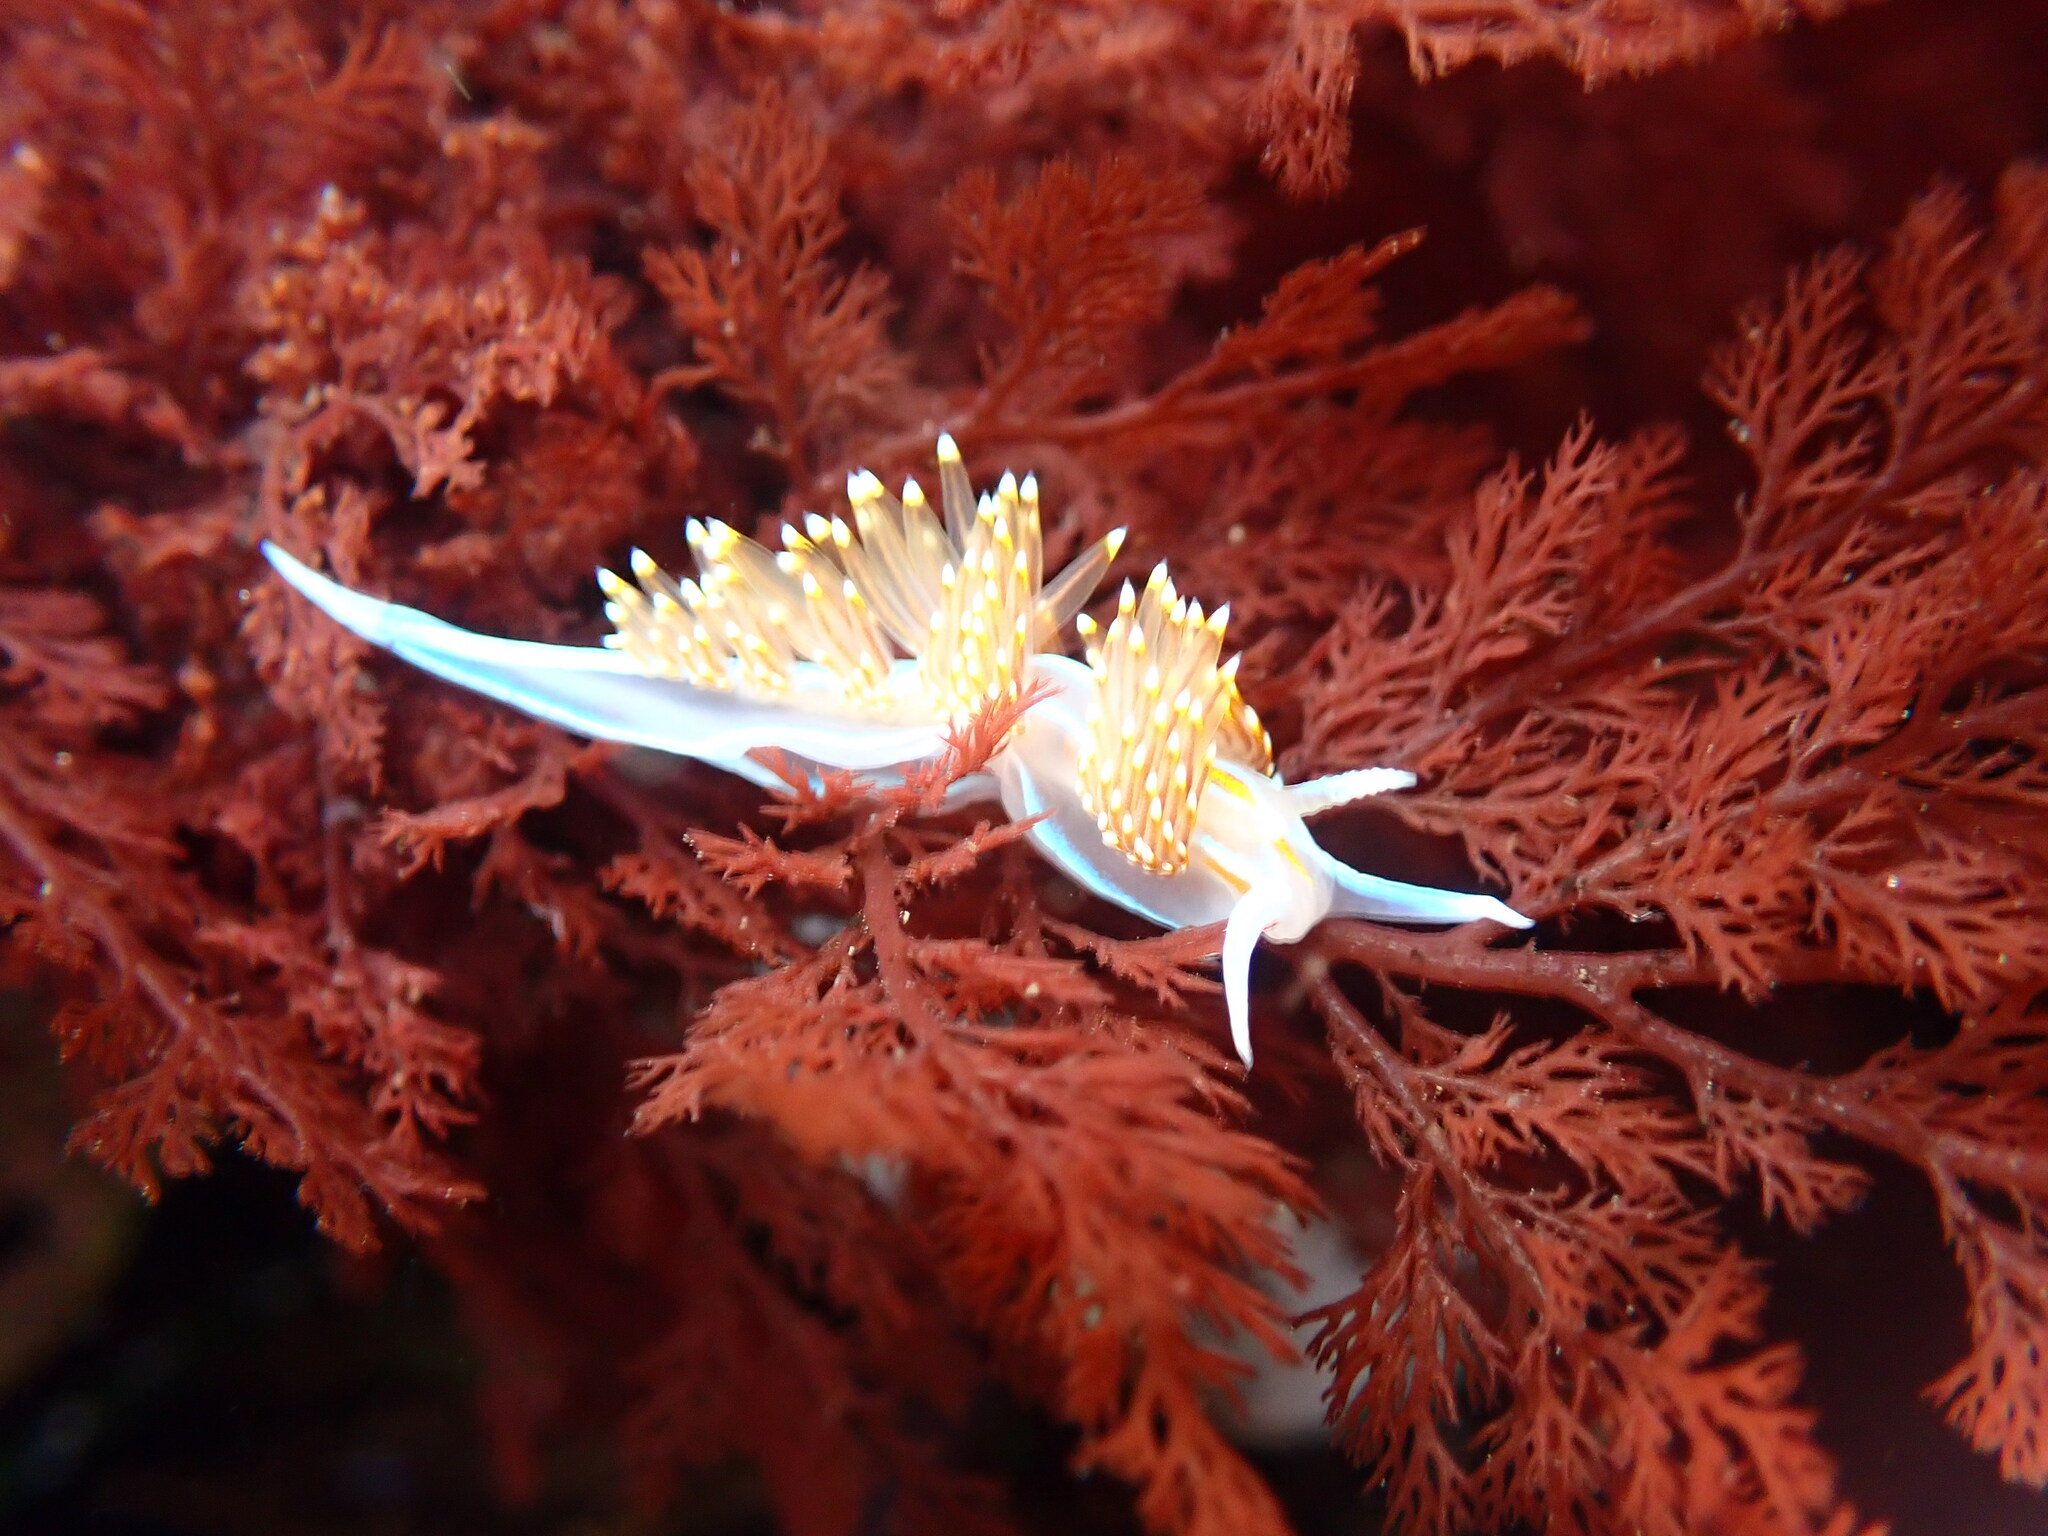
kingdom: Animalia
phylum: Mollusca
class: Gastropoda
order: Nudibranchia
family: Myrrhinidae
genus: Hermissenda
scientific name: Hermissenda opalescens
